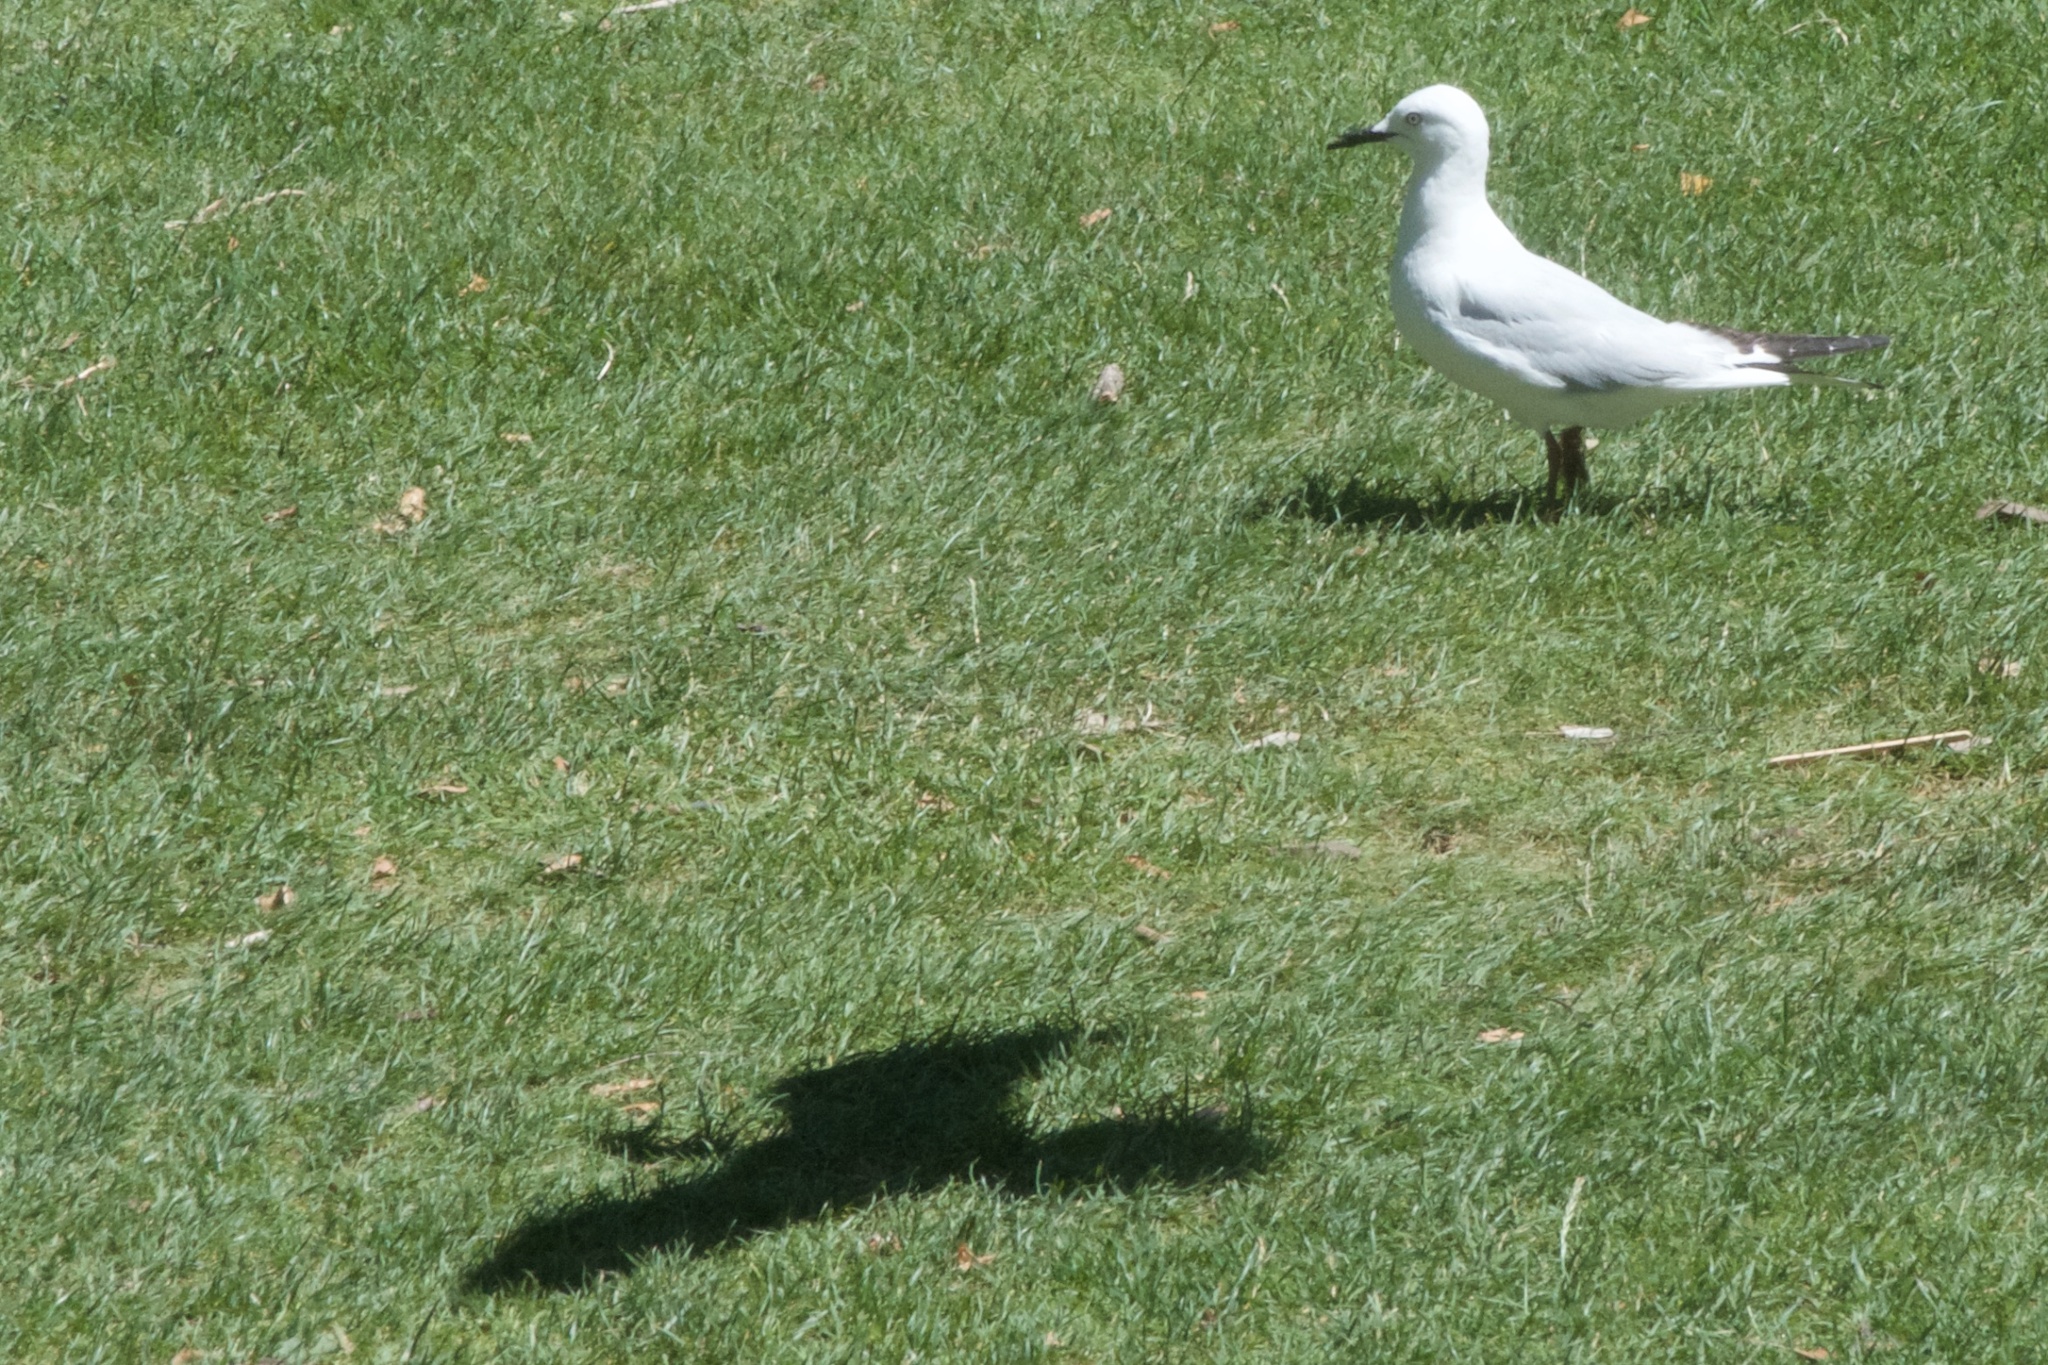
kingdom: Animalia
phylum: Chordata
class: Aves
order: Charadriiformes
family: Laridae
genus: Chroicocephalus
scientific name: Chroicocephalus bulleri
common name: Black-billed gull
